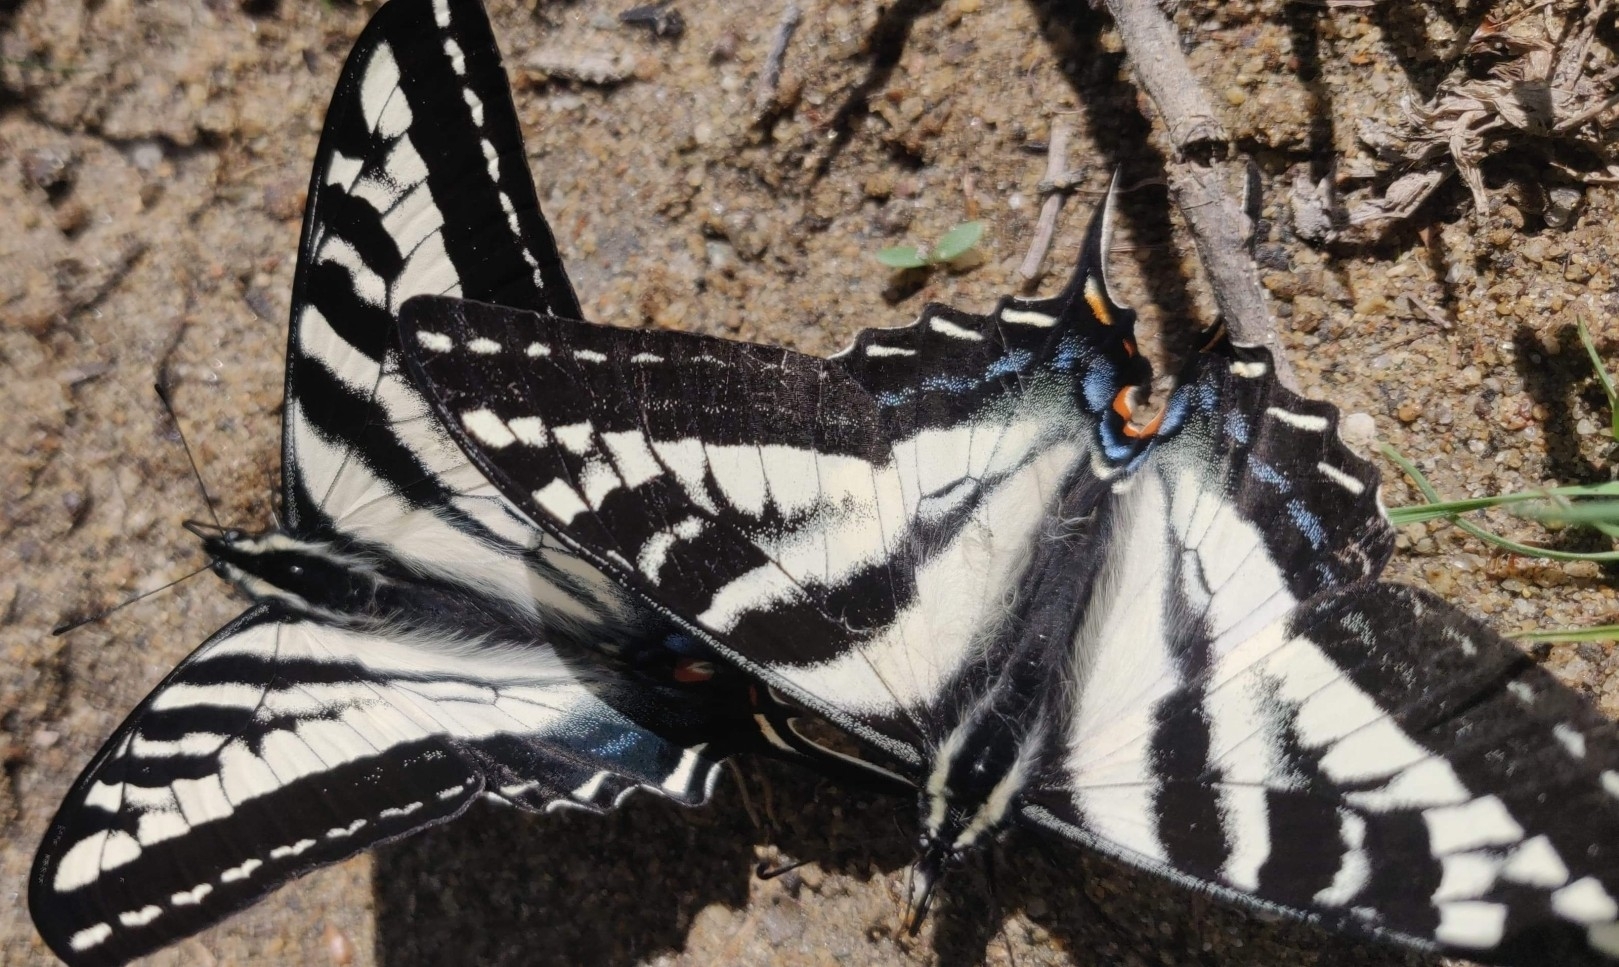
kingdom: Animalia
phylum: Arthropoda
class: Insecta
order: Lepidoptera
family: Papilionidae
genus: Papilio
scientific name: Papilio eurymedon
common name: Pale tiger swallowtail
